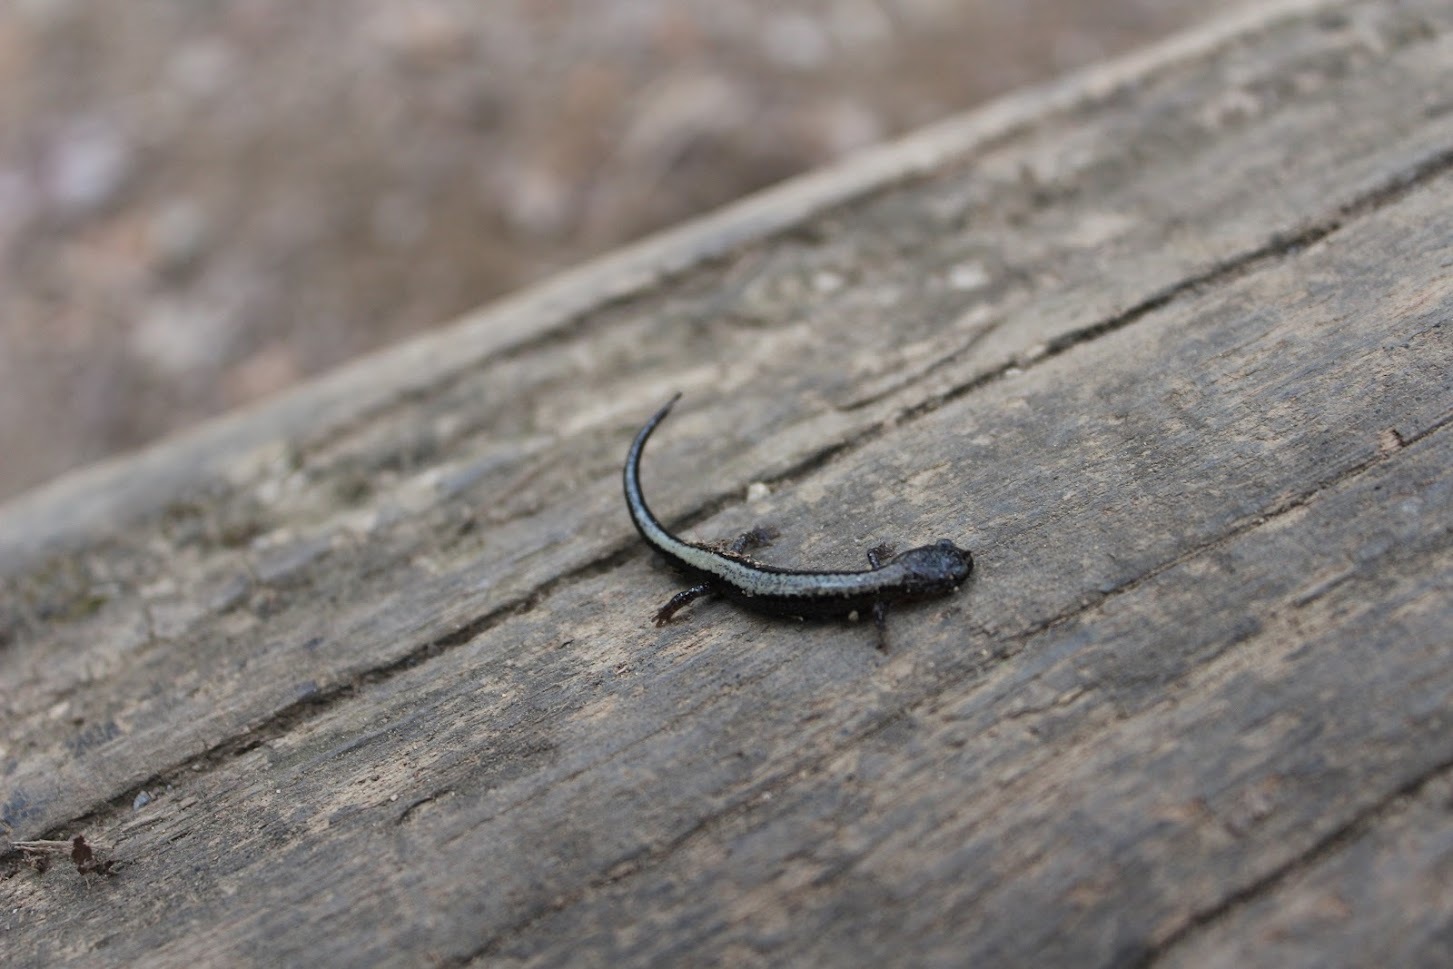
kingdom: Animalia
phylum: Chordata
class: Amphibia
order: Caudata
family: Plethodontidae
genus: Plethodon
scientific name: Plethodon cinereus
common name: Redback salamander
